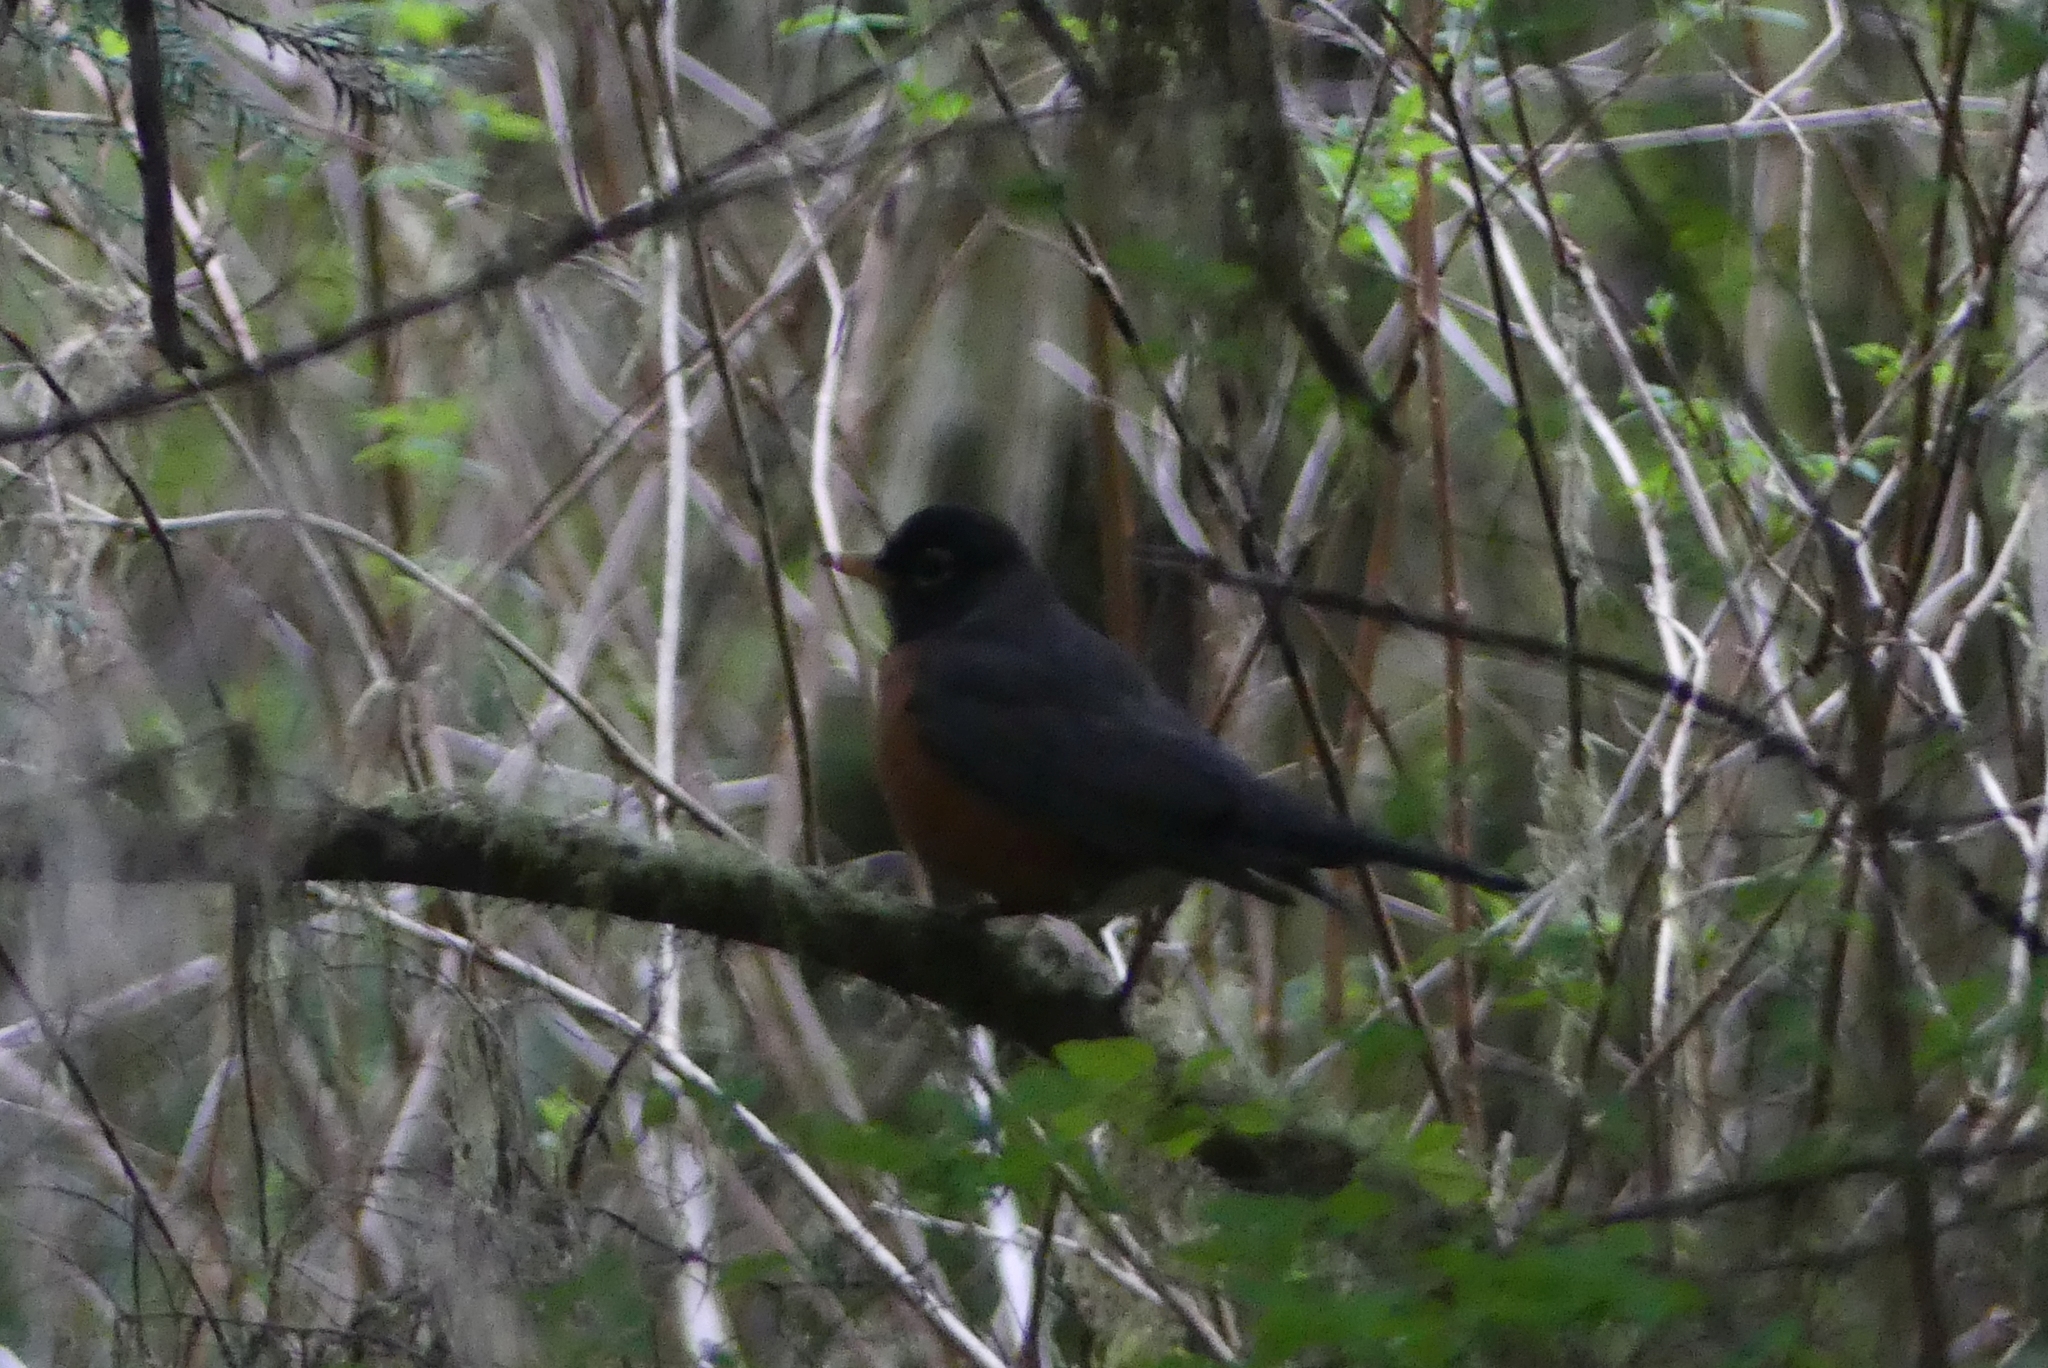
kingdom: Animalia
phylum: Chordata
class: Aves
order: Passeriformes
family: Turdidae
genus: Turdus
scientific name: Turdus migratorius
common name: American robin
